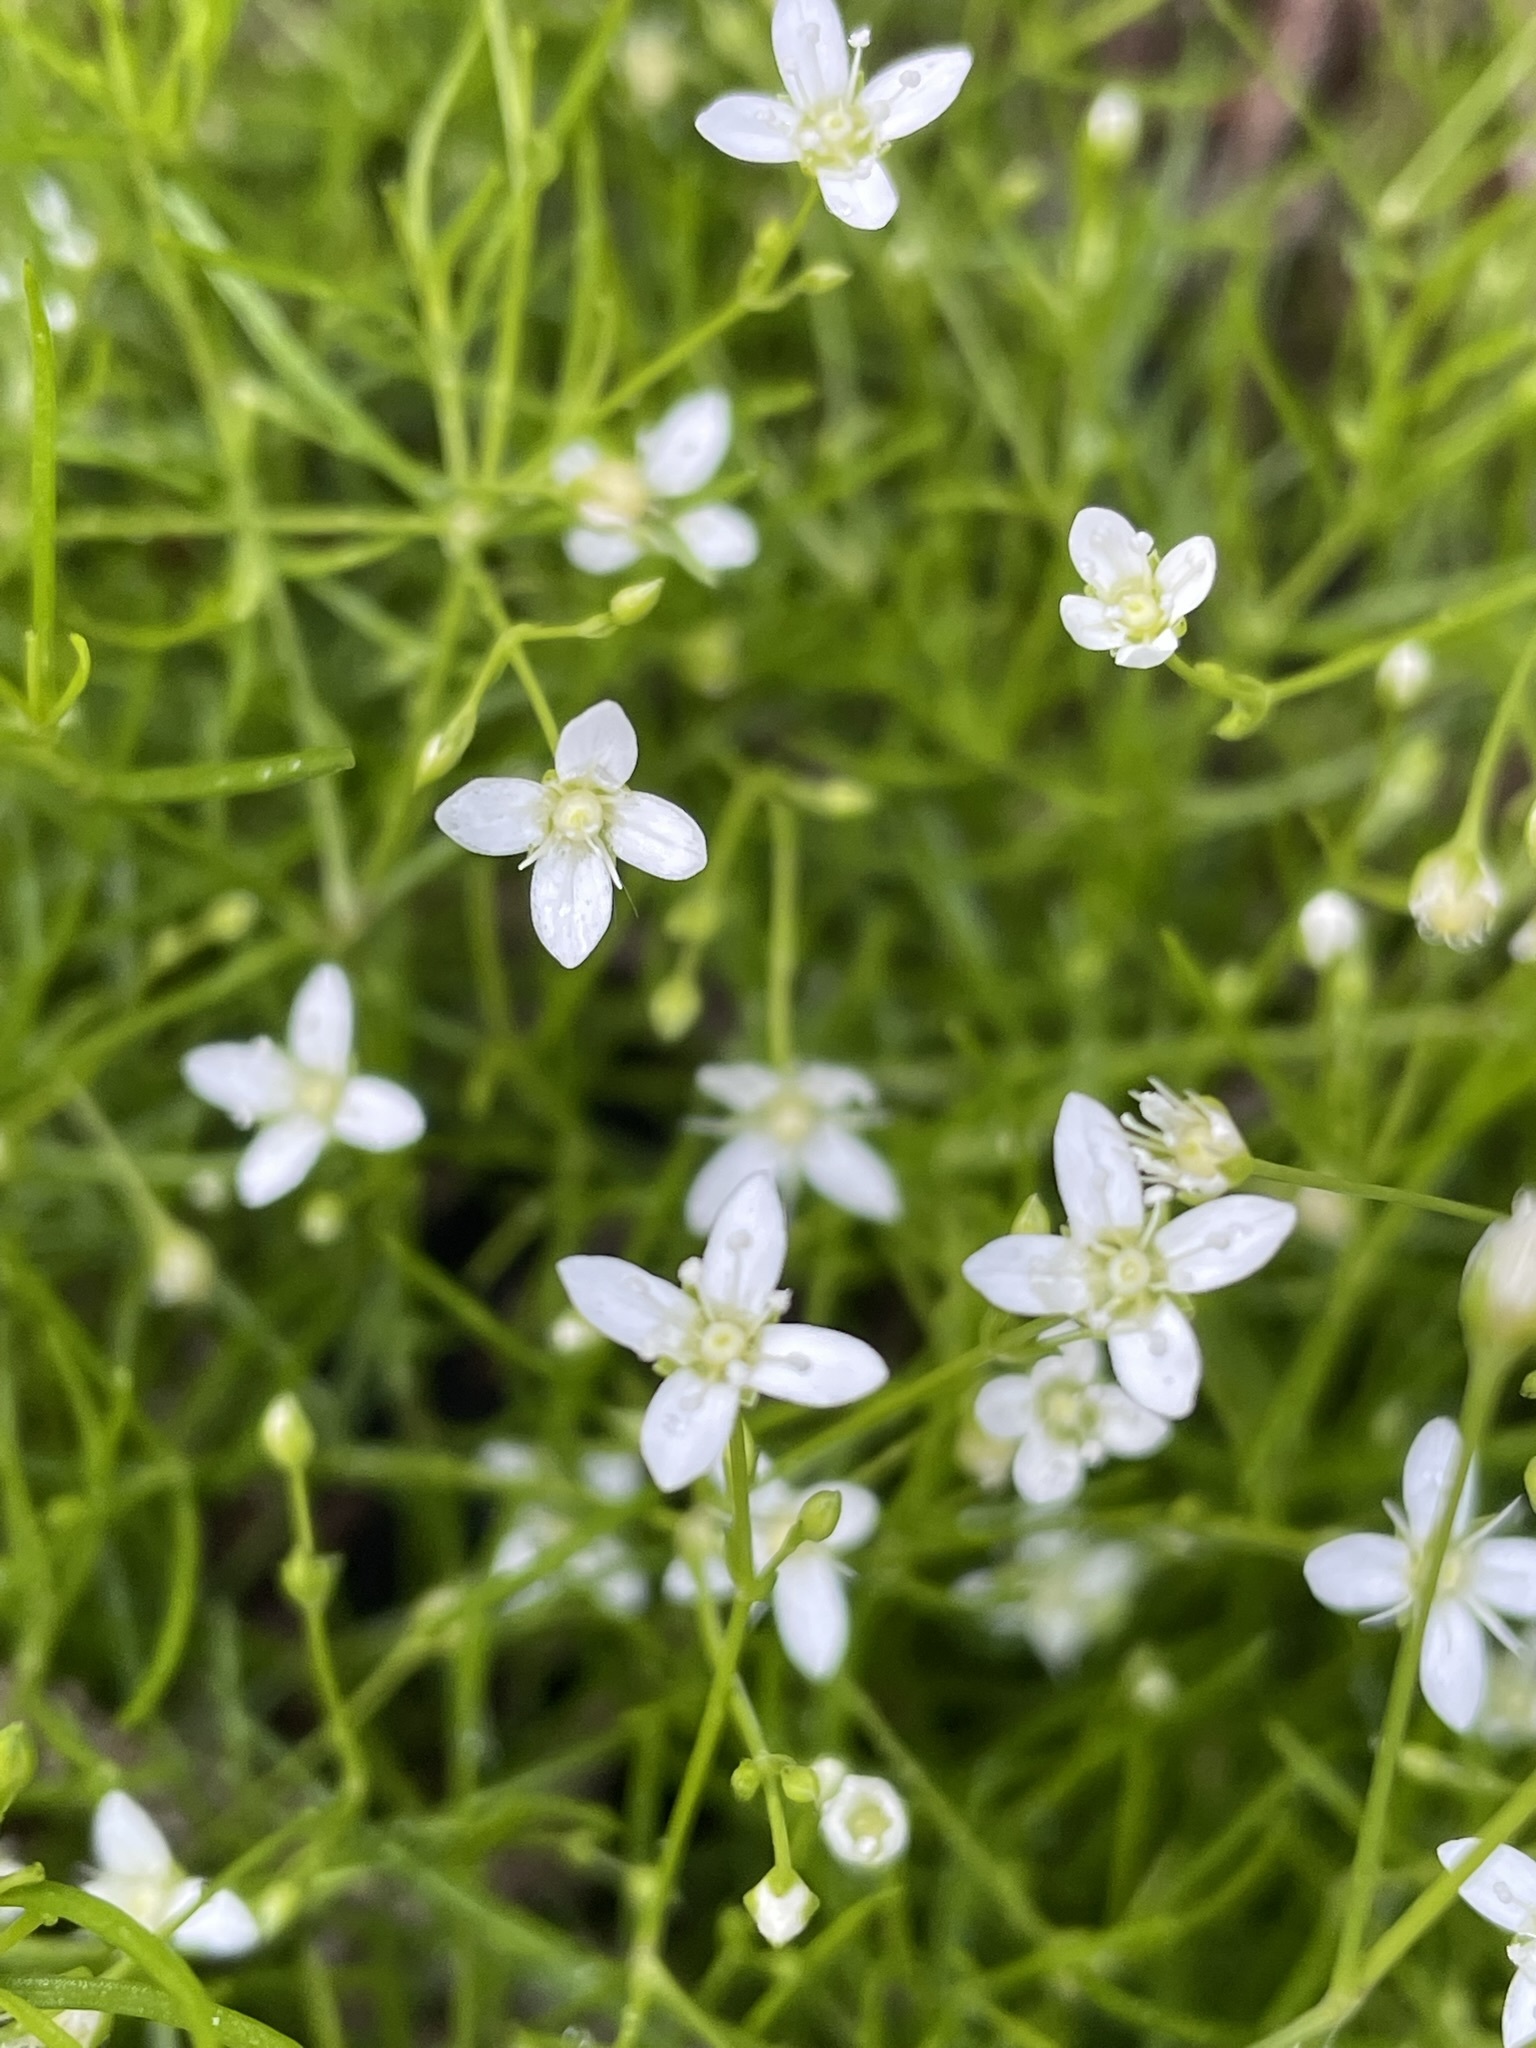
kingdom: Plantae
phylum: Tracheophyta
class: Magnoliopsida
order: Caryophyllales
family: Caryophyllaceae
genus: Moehringia
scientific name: Moehringia muscosa
